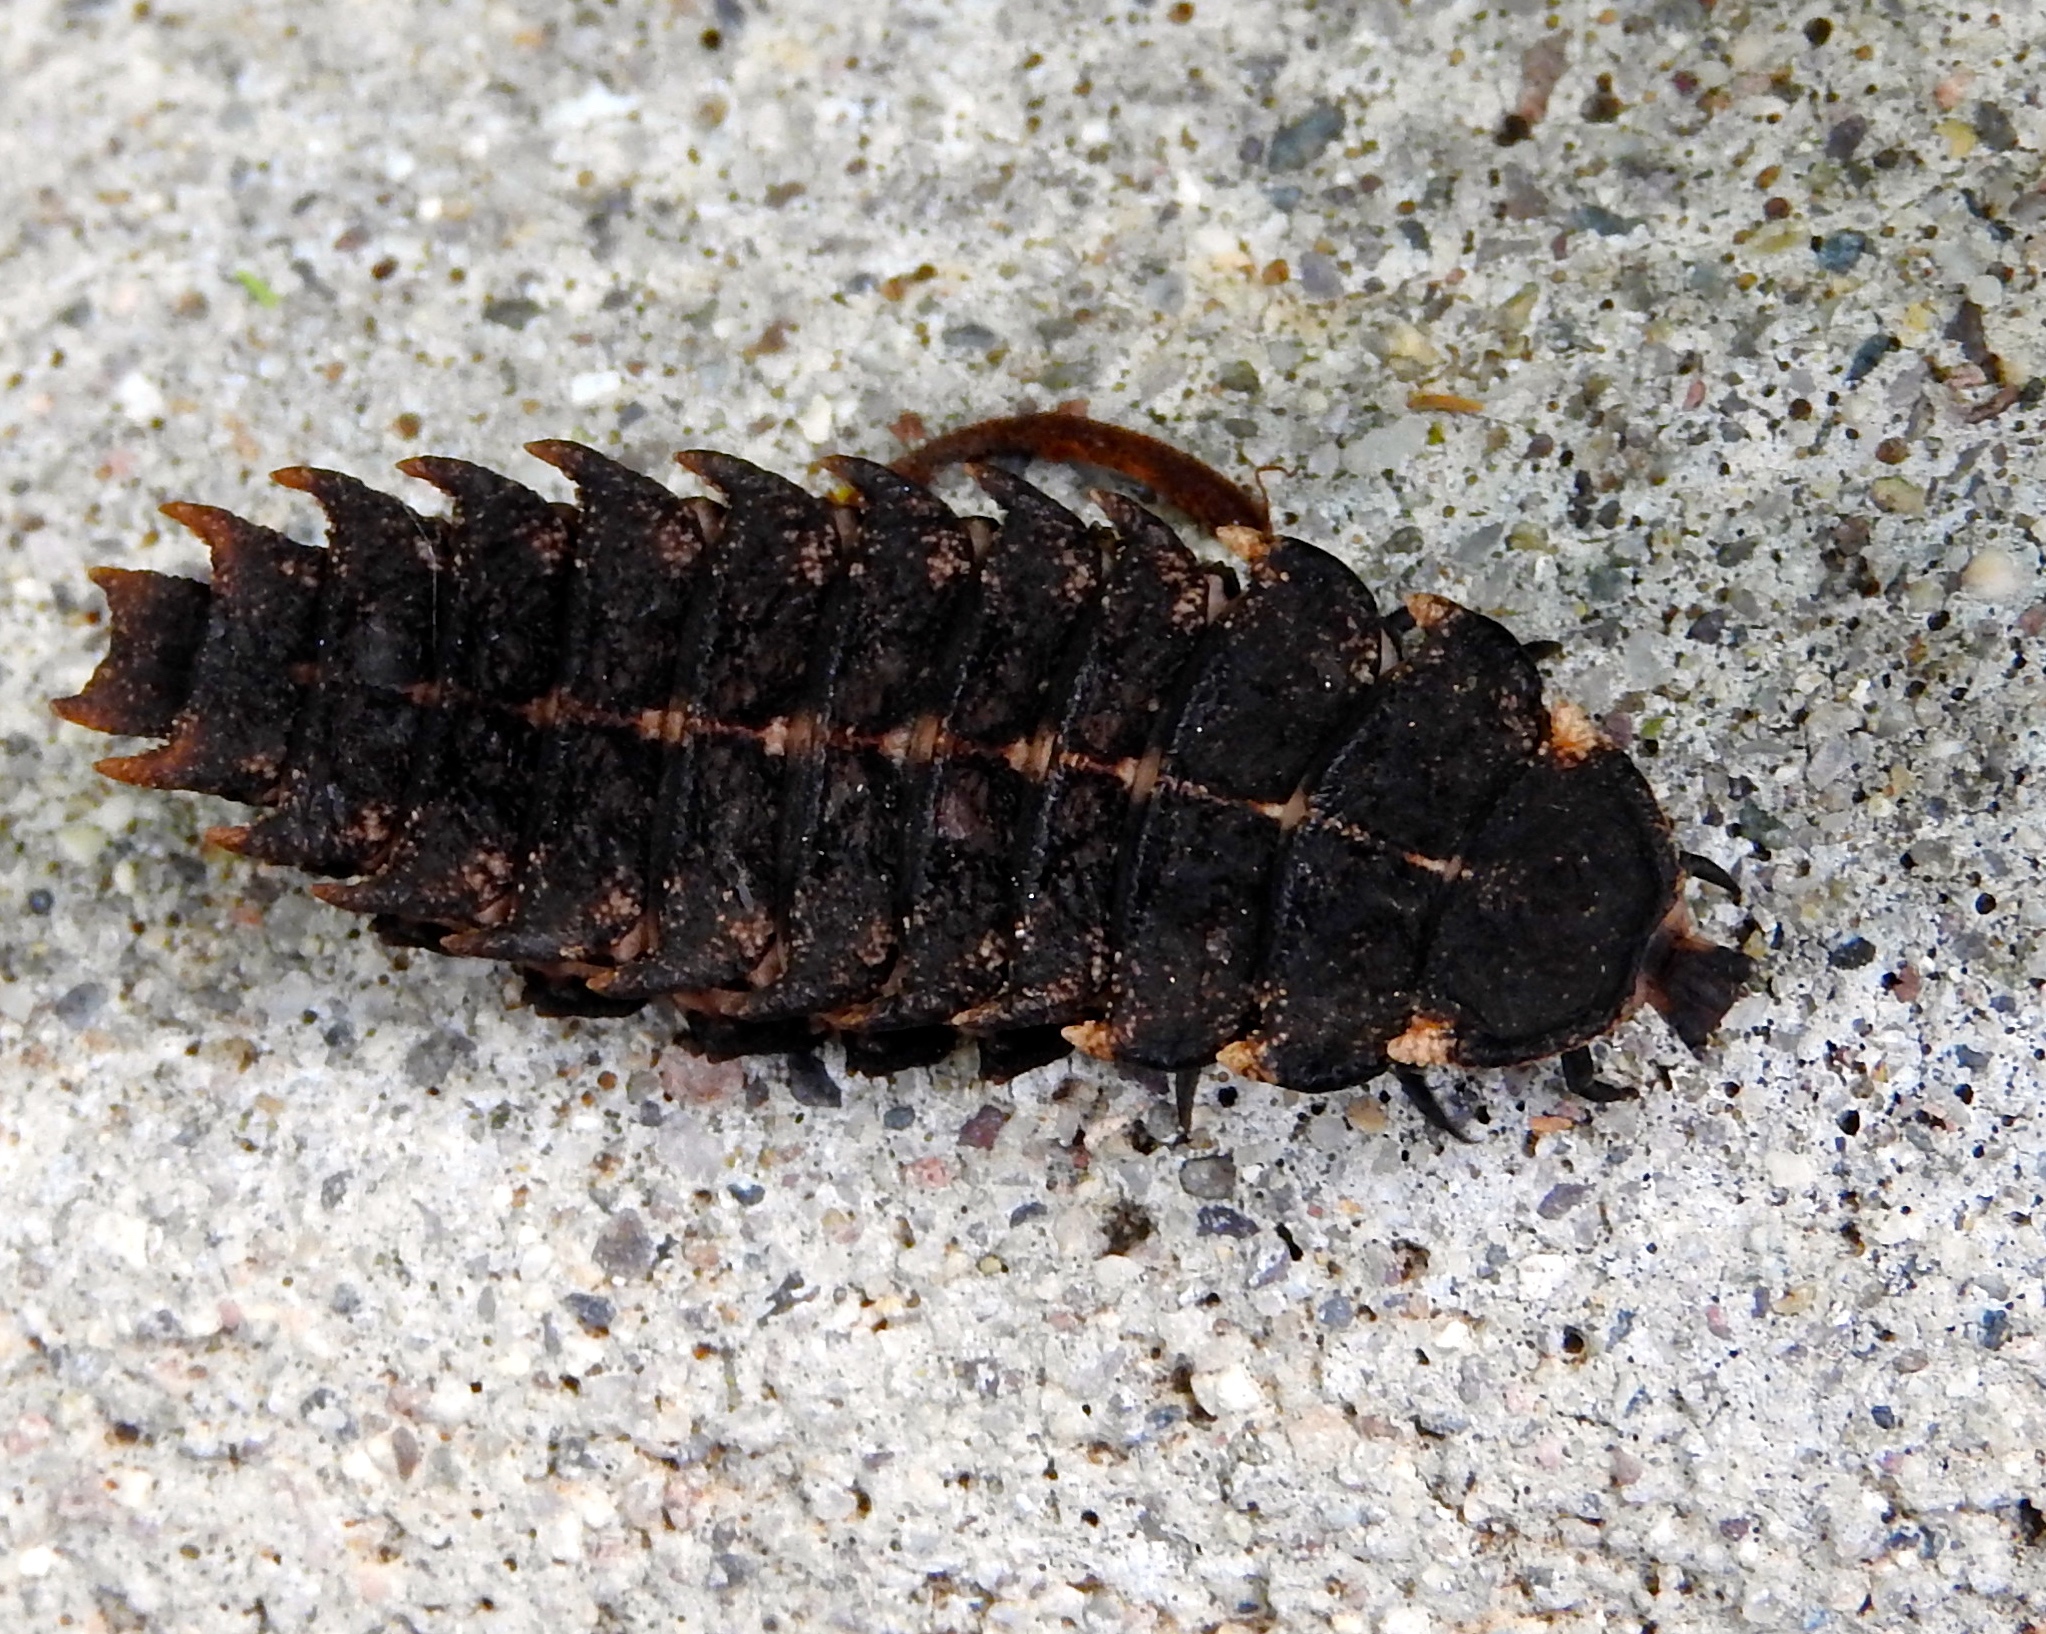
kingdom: Animalia
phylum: Arthropoda
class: Insecta
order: Coleoptera
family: Lycidae
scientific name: Lycidae
